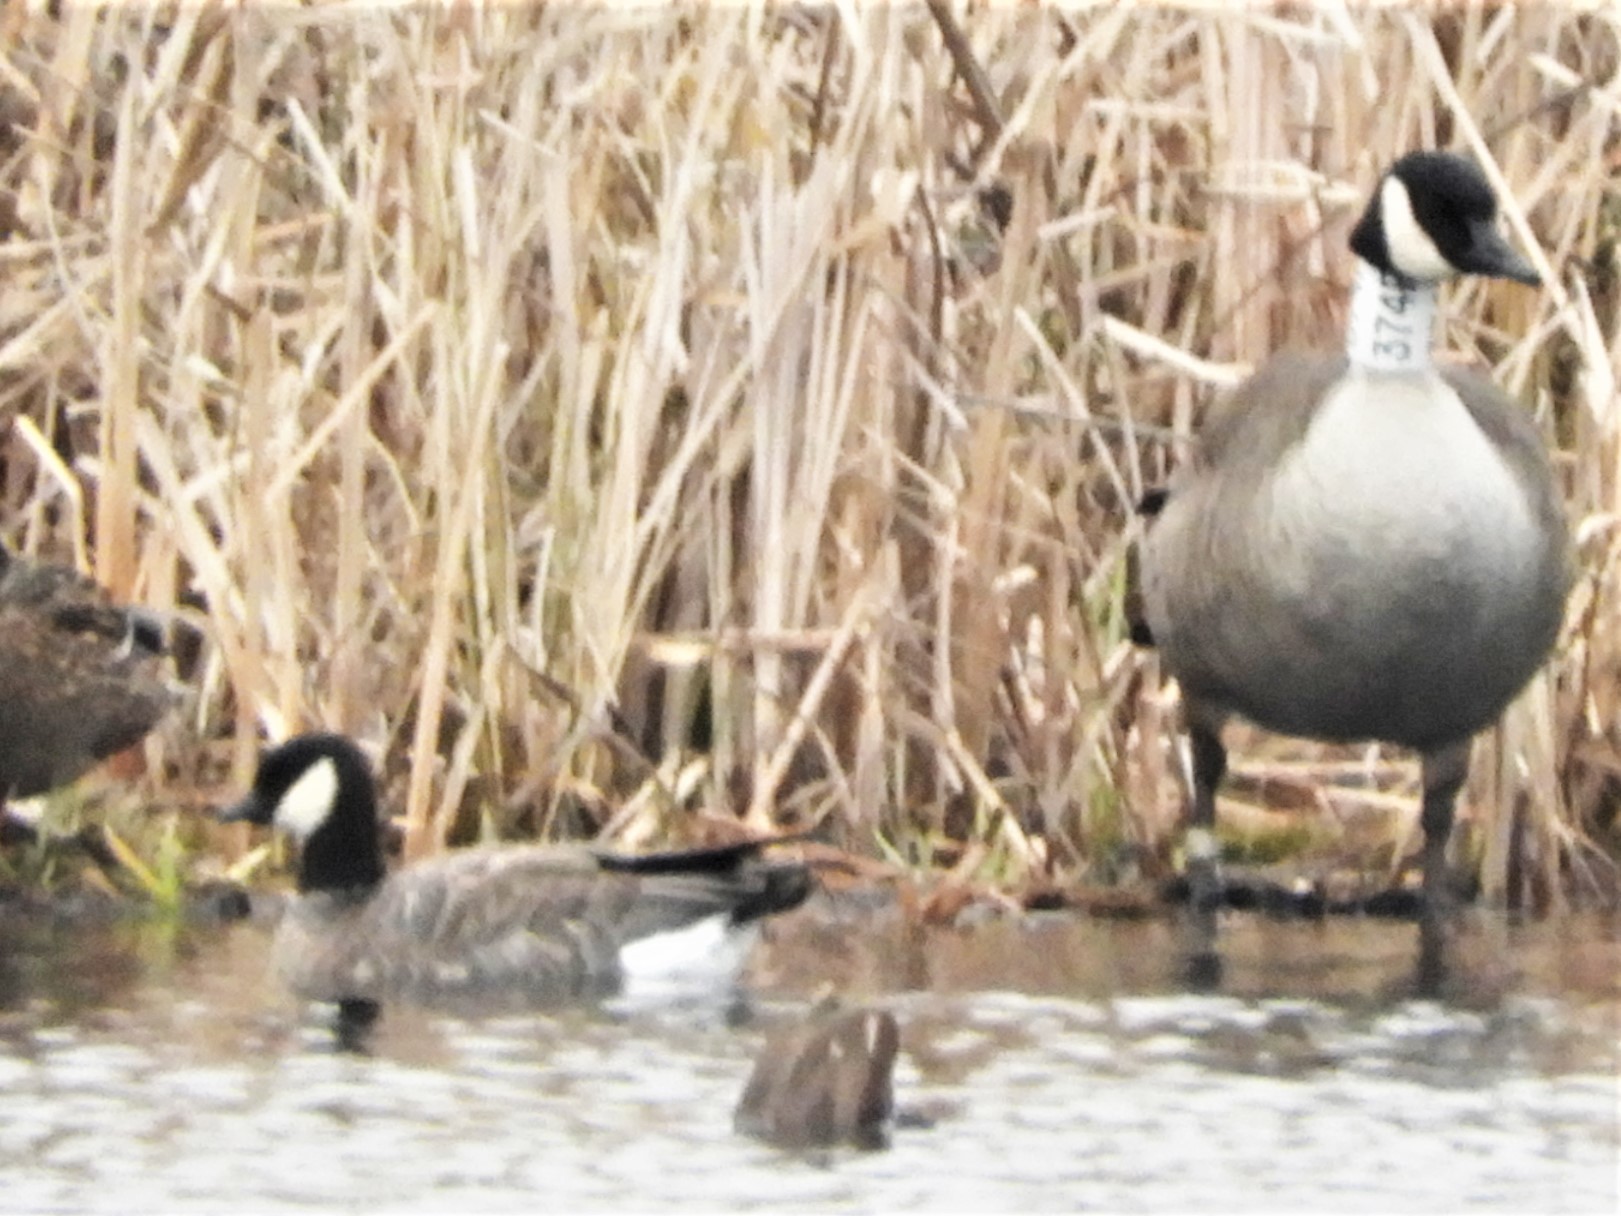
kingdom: Animalia
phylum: Chordata
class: Aves
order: Anseriformes
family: Anatidae
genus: Branta
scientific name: Branta hutchinsii
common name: Cackling goose
